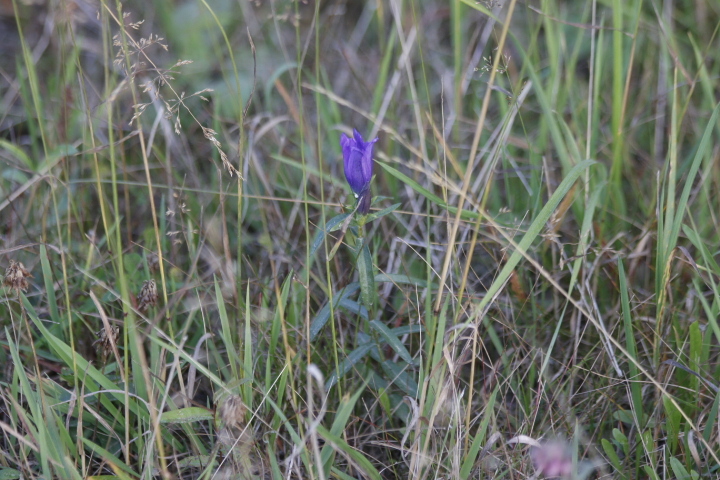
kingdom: Plantae
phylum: Tracheophyta
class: Magnoliopsida
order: Gentianales
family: Gentianaceae
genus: Gentiana
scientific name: Gentiana pneumonanthe
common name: Marsh gentian
